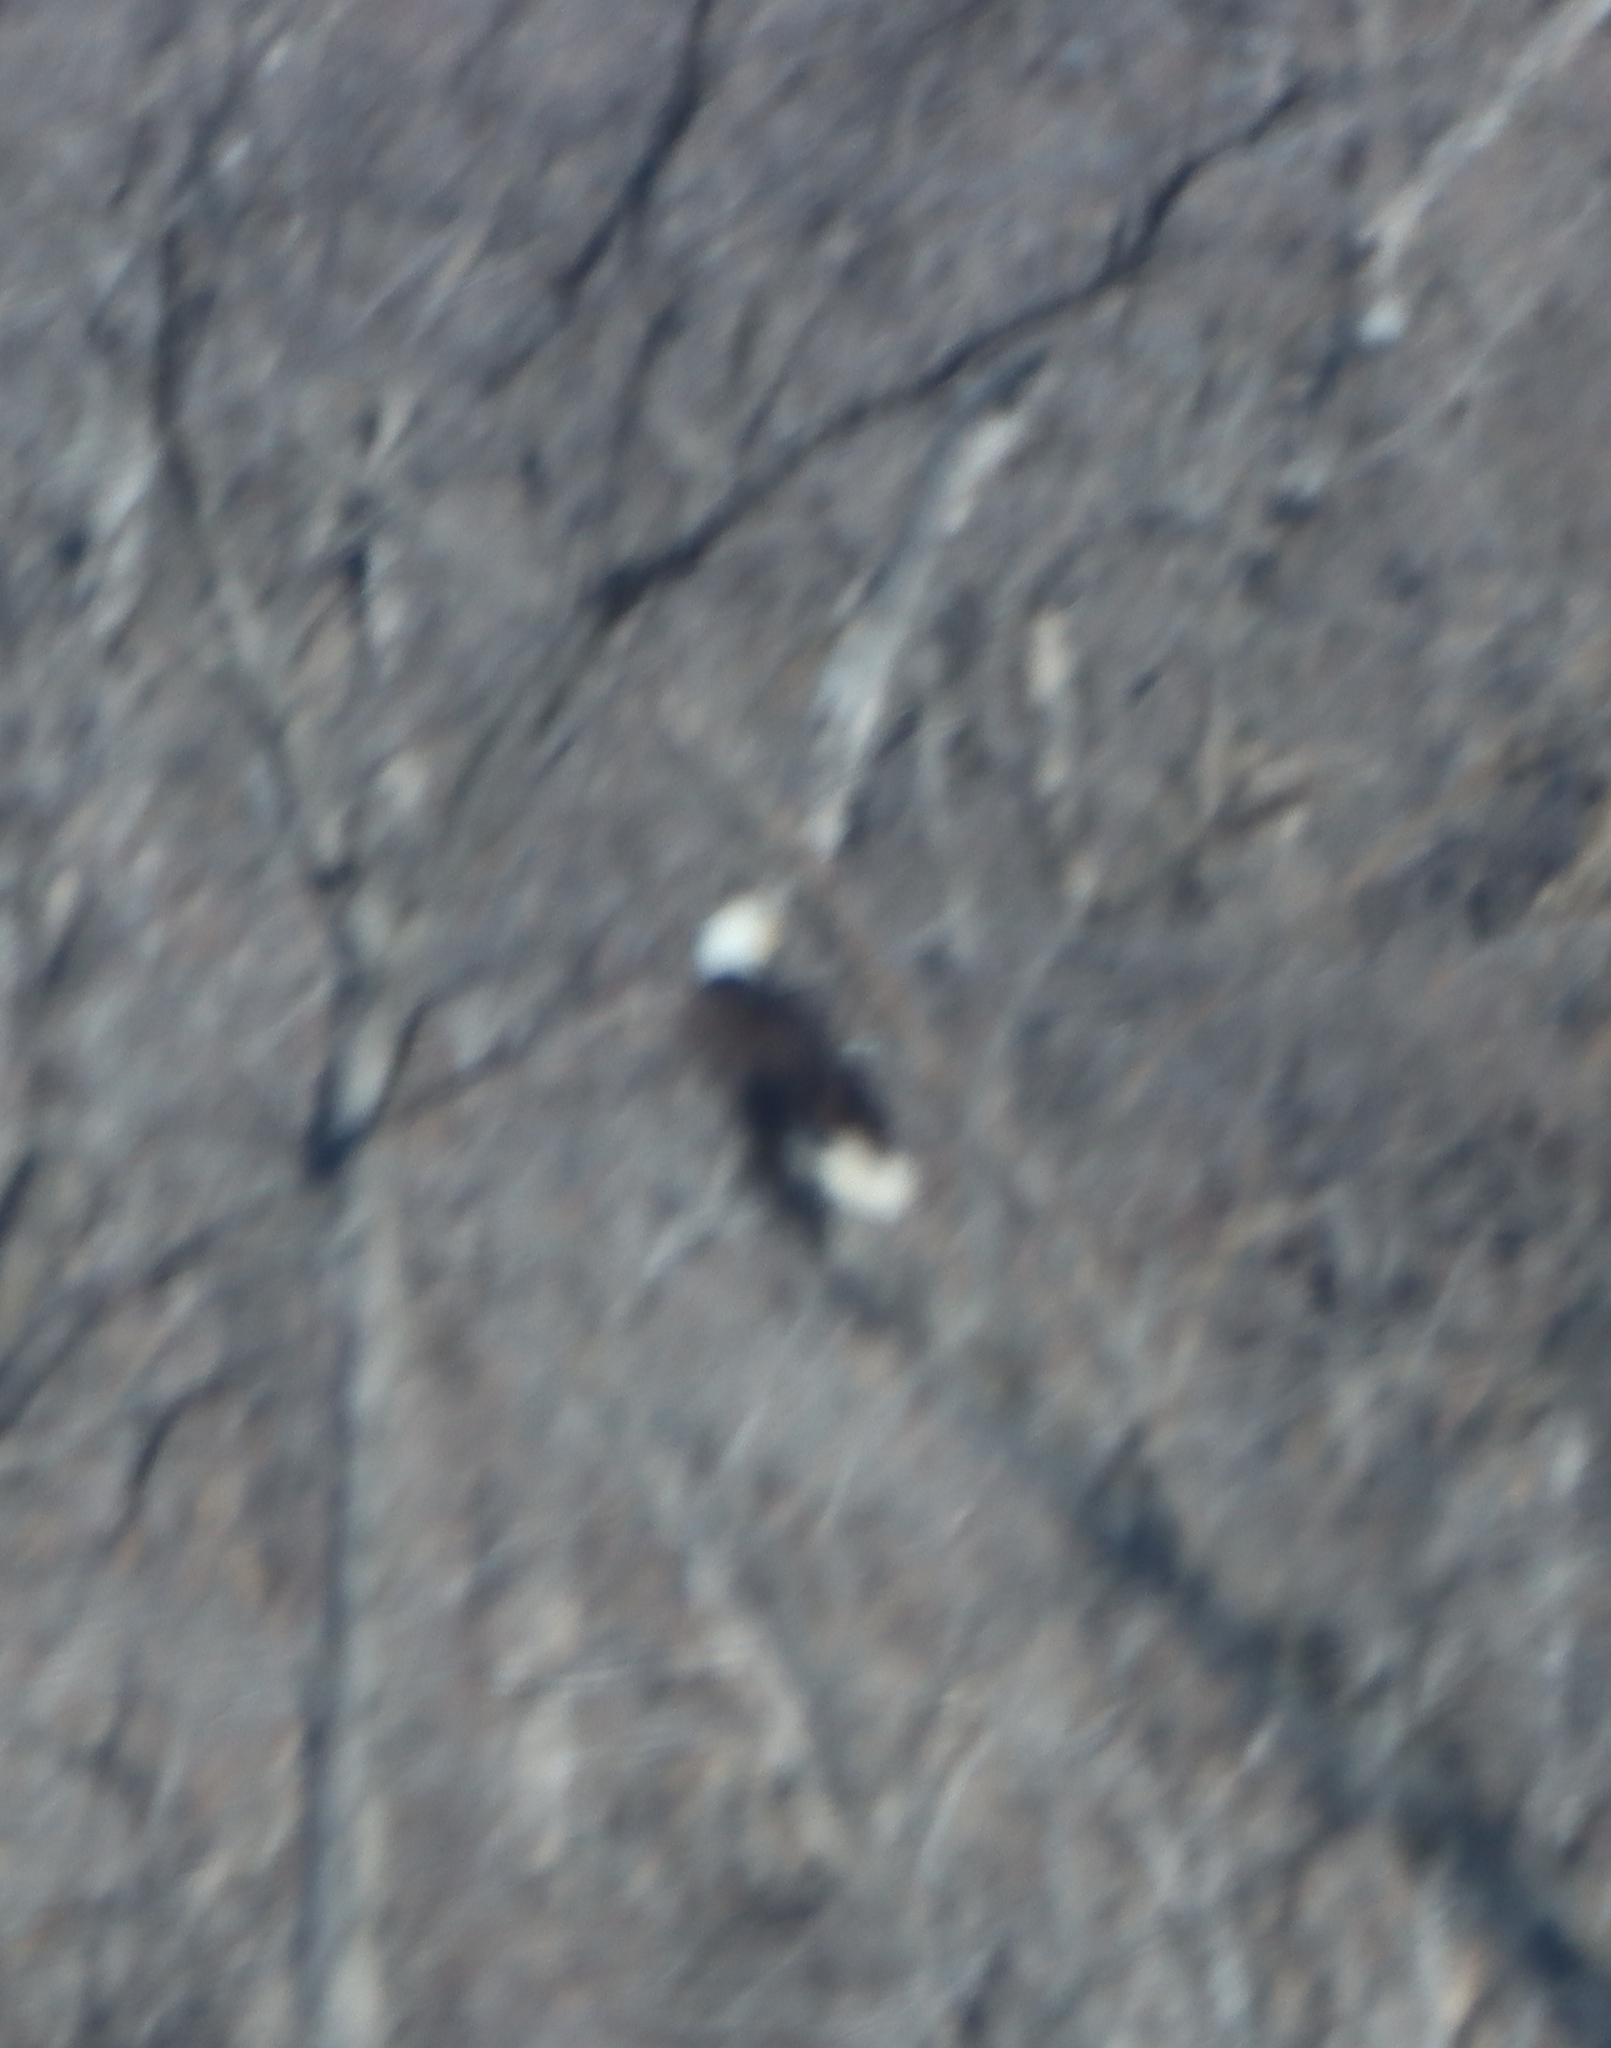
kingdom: Animalia
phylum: Chordata
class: Aves
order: Accipitriformes
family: Accipitridae
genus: Haliaeetus
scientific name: Haliaeetus leucocephalus
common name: Bald eagle
